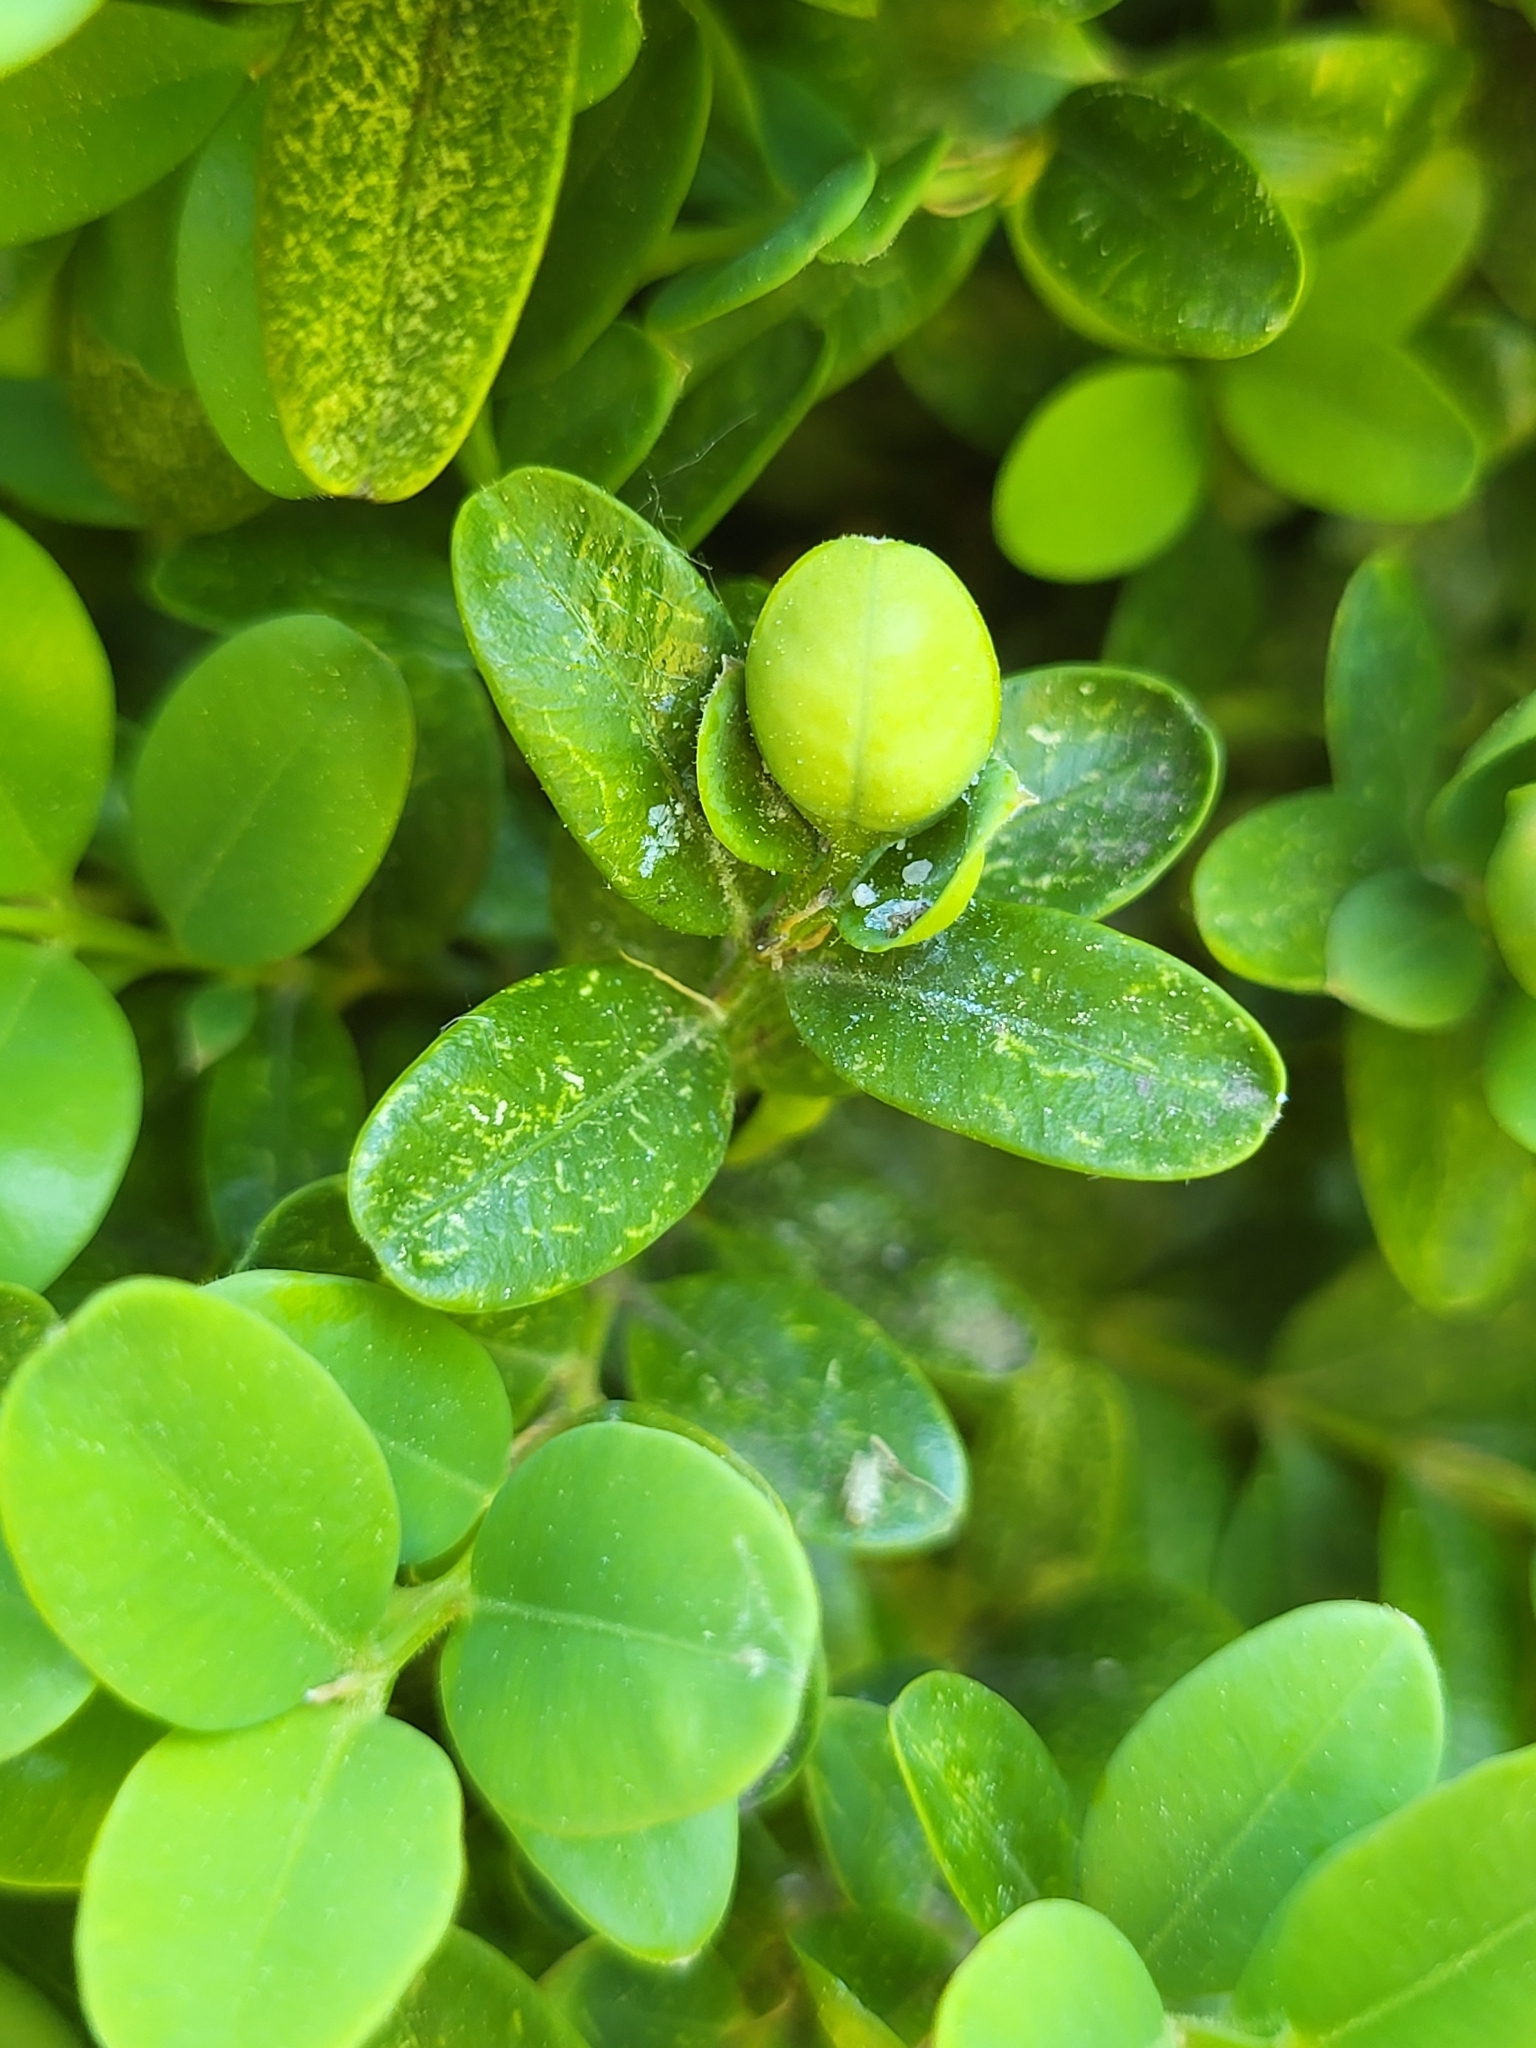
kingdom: Animalia
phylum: Arthropoda
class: Insecta
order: Hemiptera
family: Psyllidae
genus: Psylla
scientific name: Psylla buxi
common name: Boxwood psyllid
